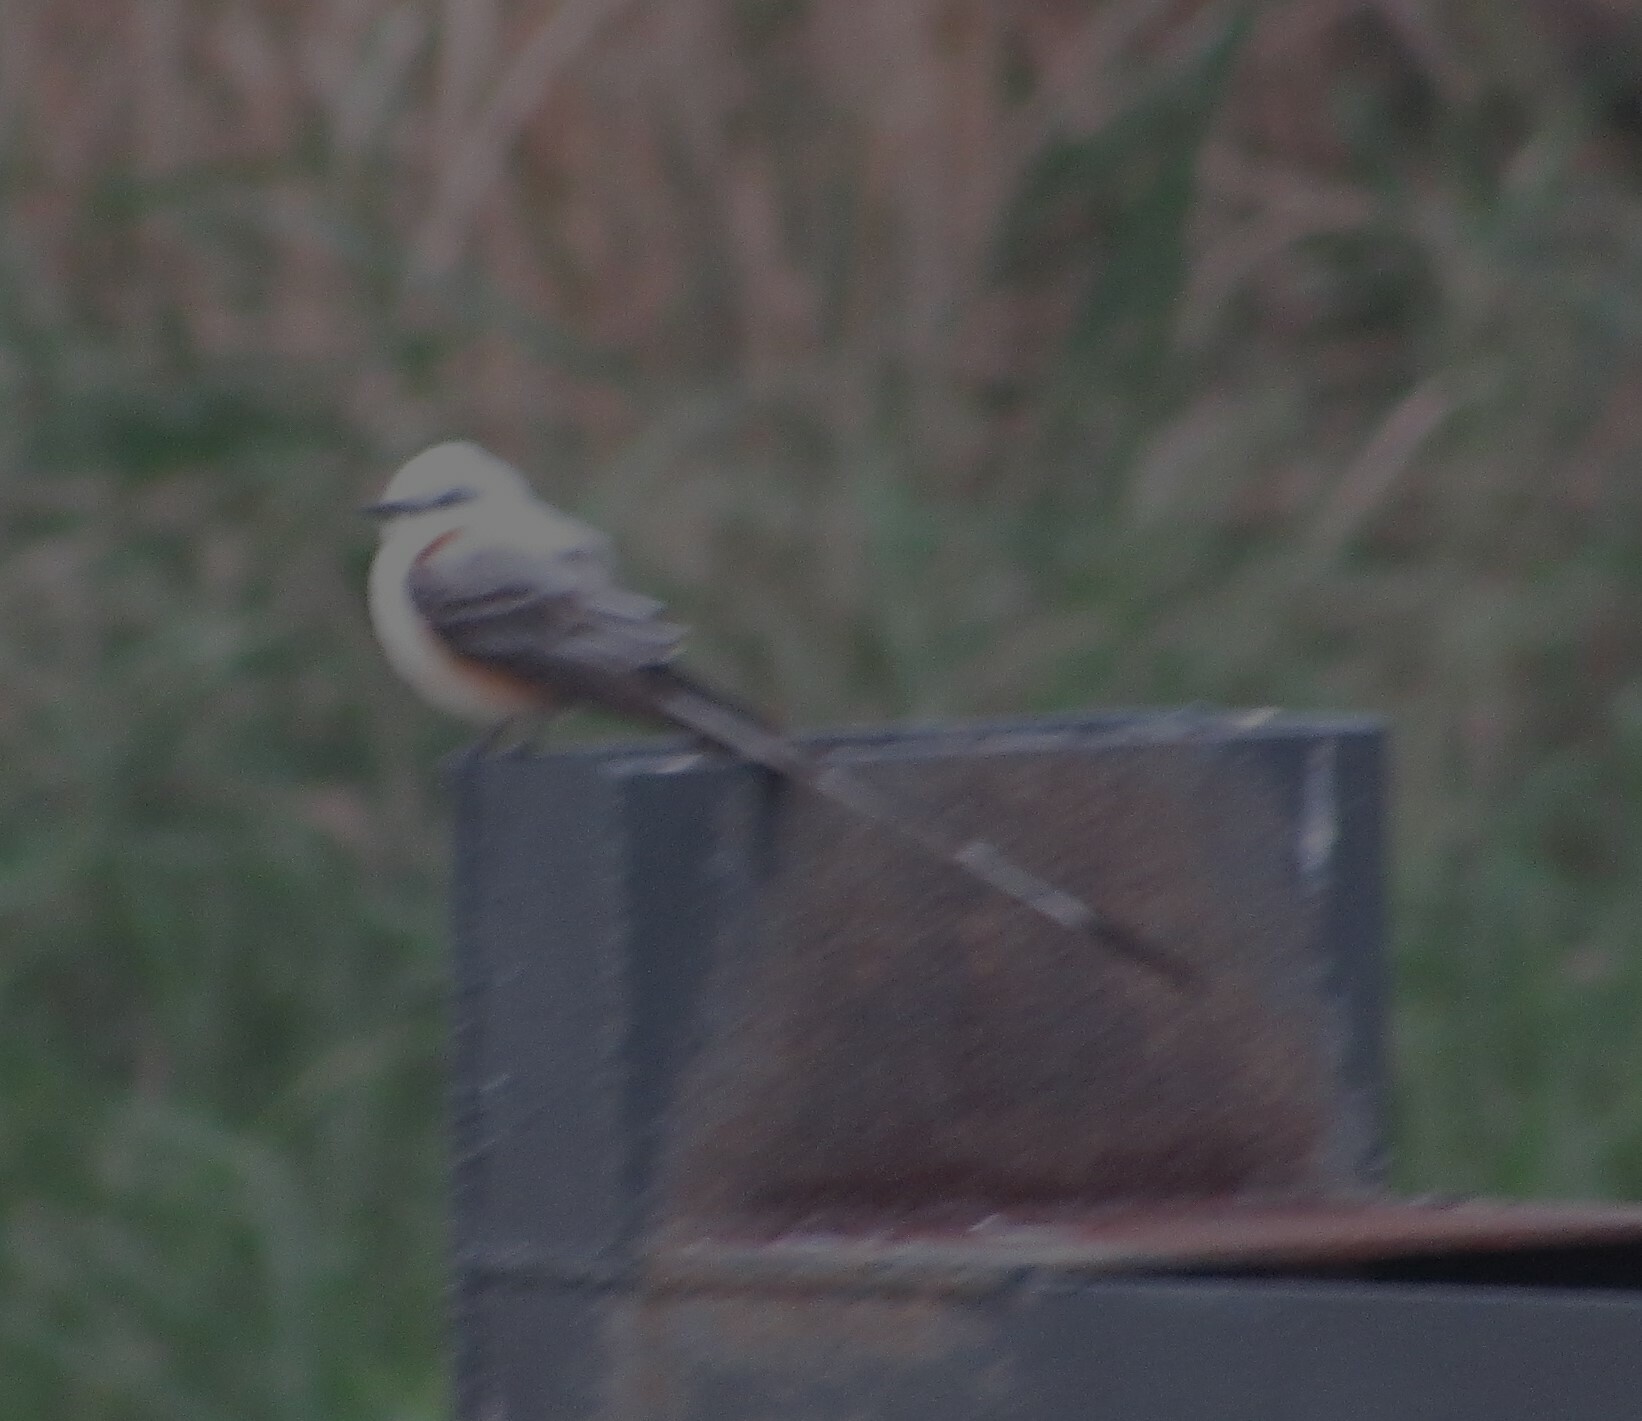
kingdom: Animalia
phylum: Chordata
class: Aves
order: Passeriformes
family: Tyrannidae
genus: Tyrannus
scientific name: Tyrannus forficatus
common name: Scissor-tailed flycatcher
